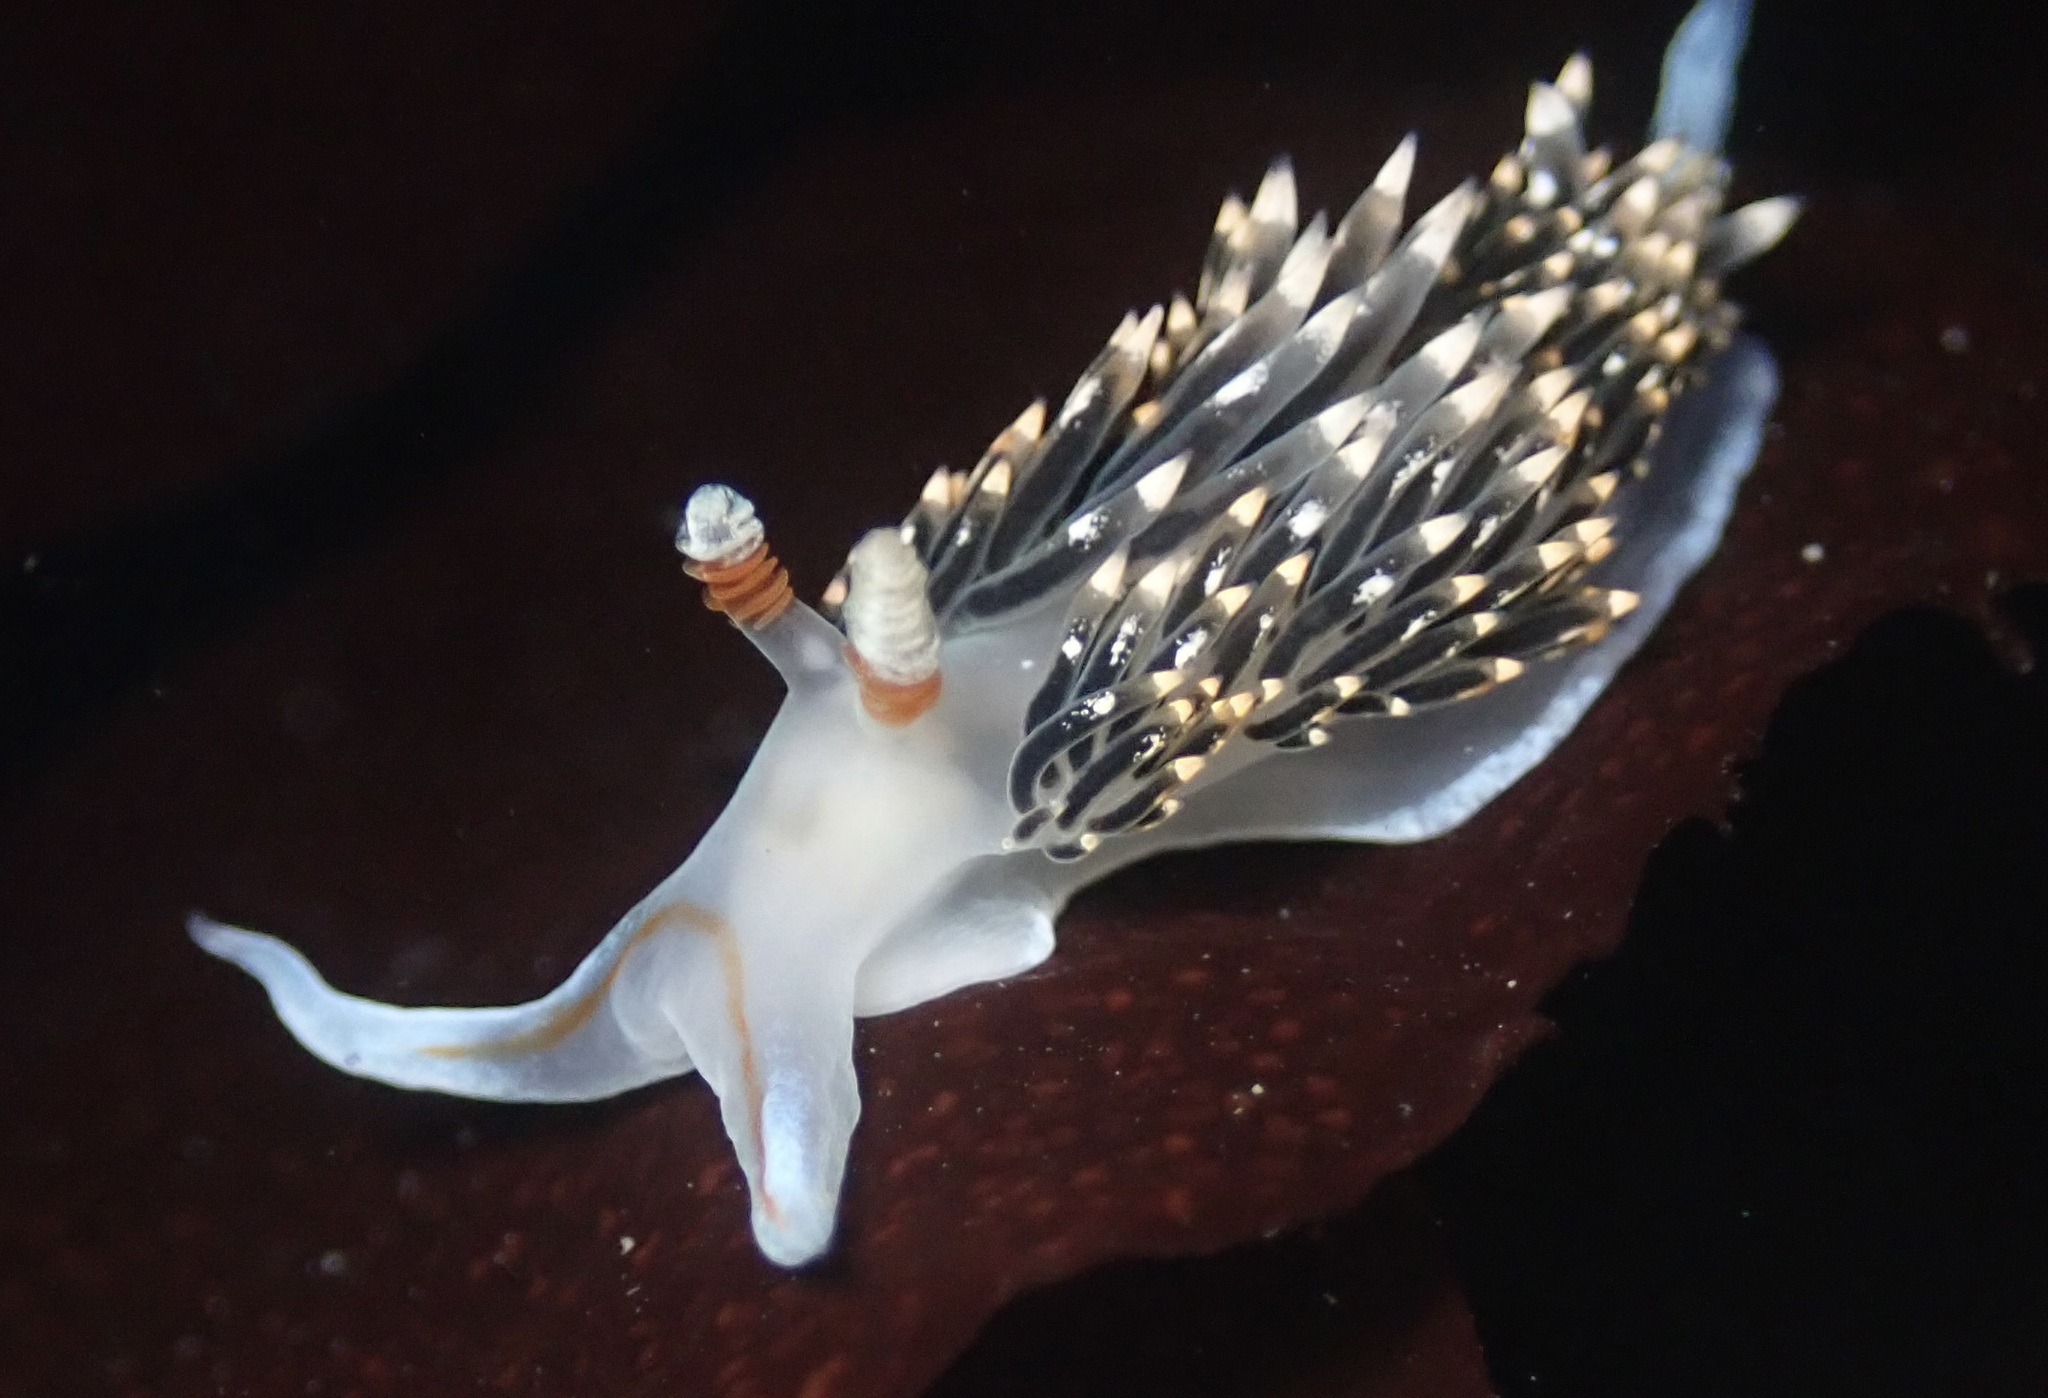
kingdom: Animalia
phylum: Mollusca
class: Gastropoda
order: Nudibranchia
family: Facelinidae
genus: Phidiana
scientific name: Phidiana hiltoni
